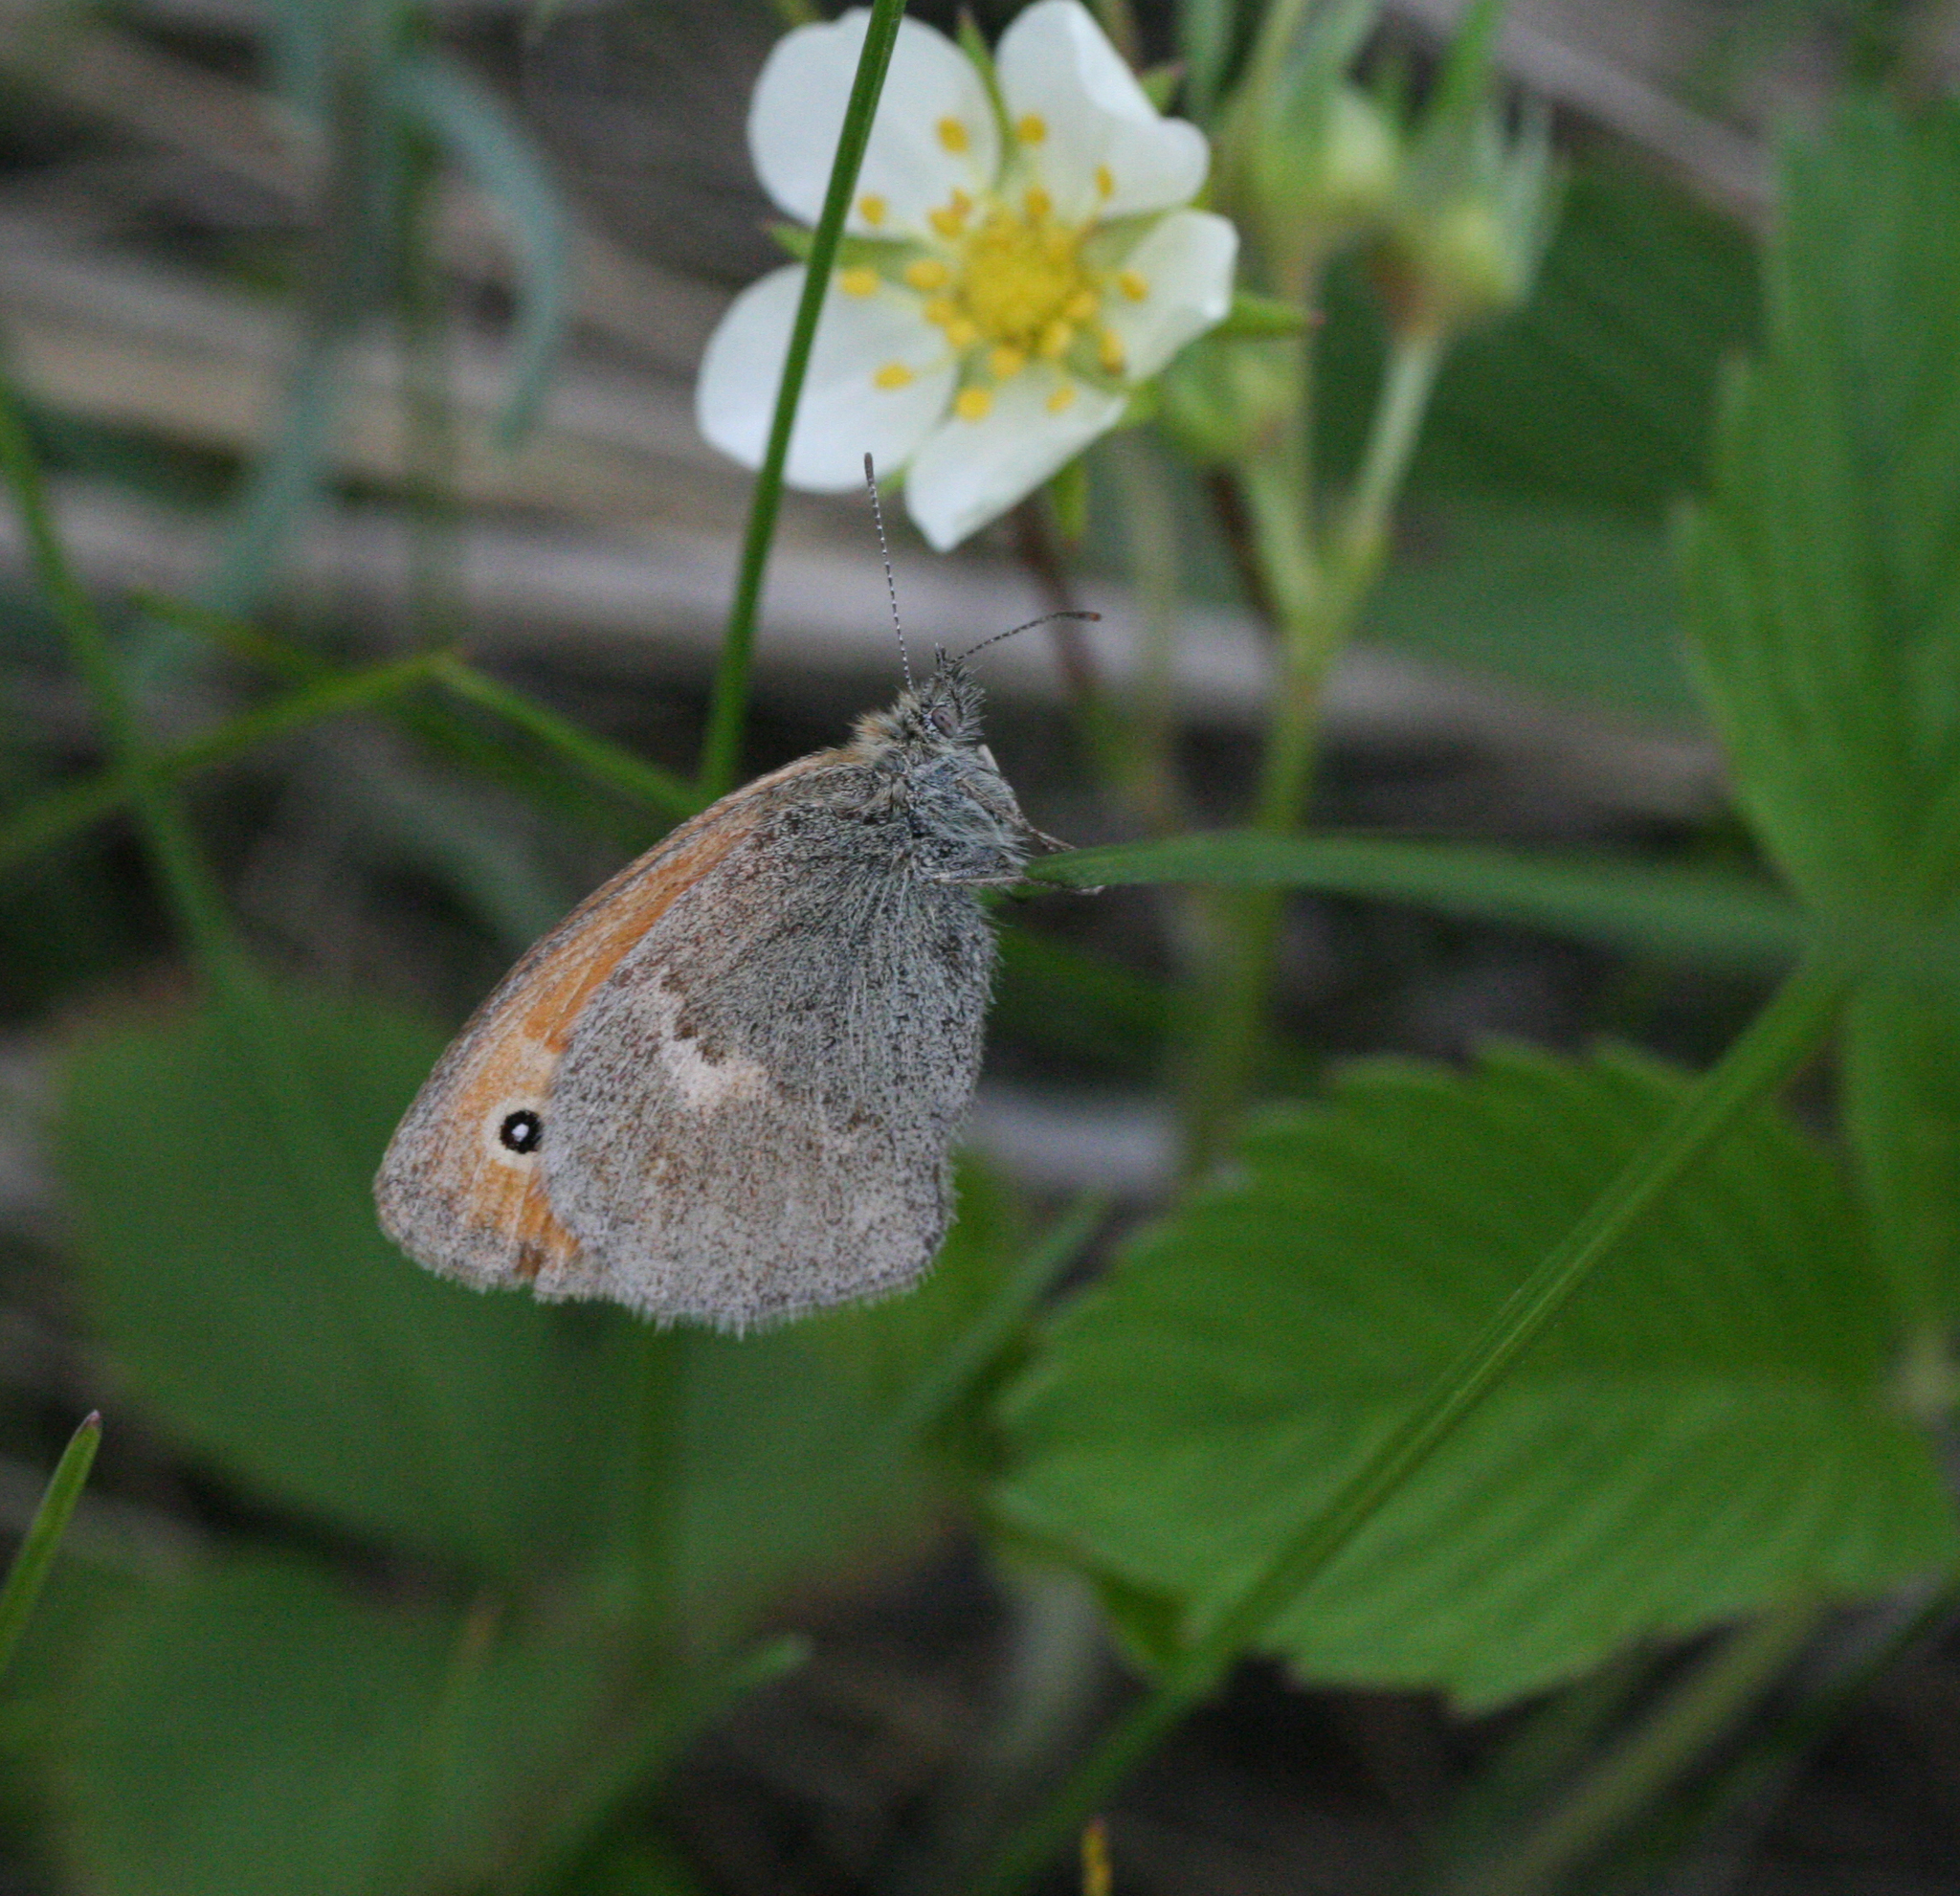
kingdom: Animalia
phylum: Arthropoda
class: Insecta
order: Lepidoptera
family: Nymphalidae
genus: Coenonympha
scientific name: Coenonympha pamphilus
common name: Small heath
